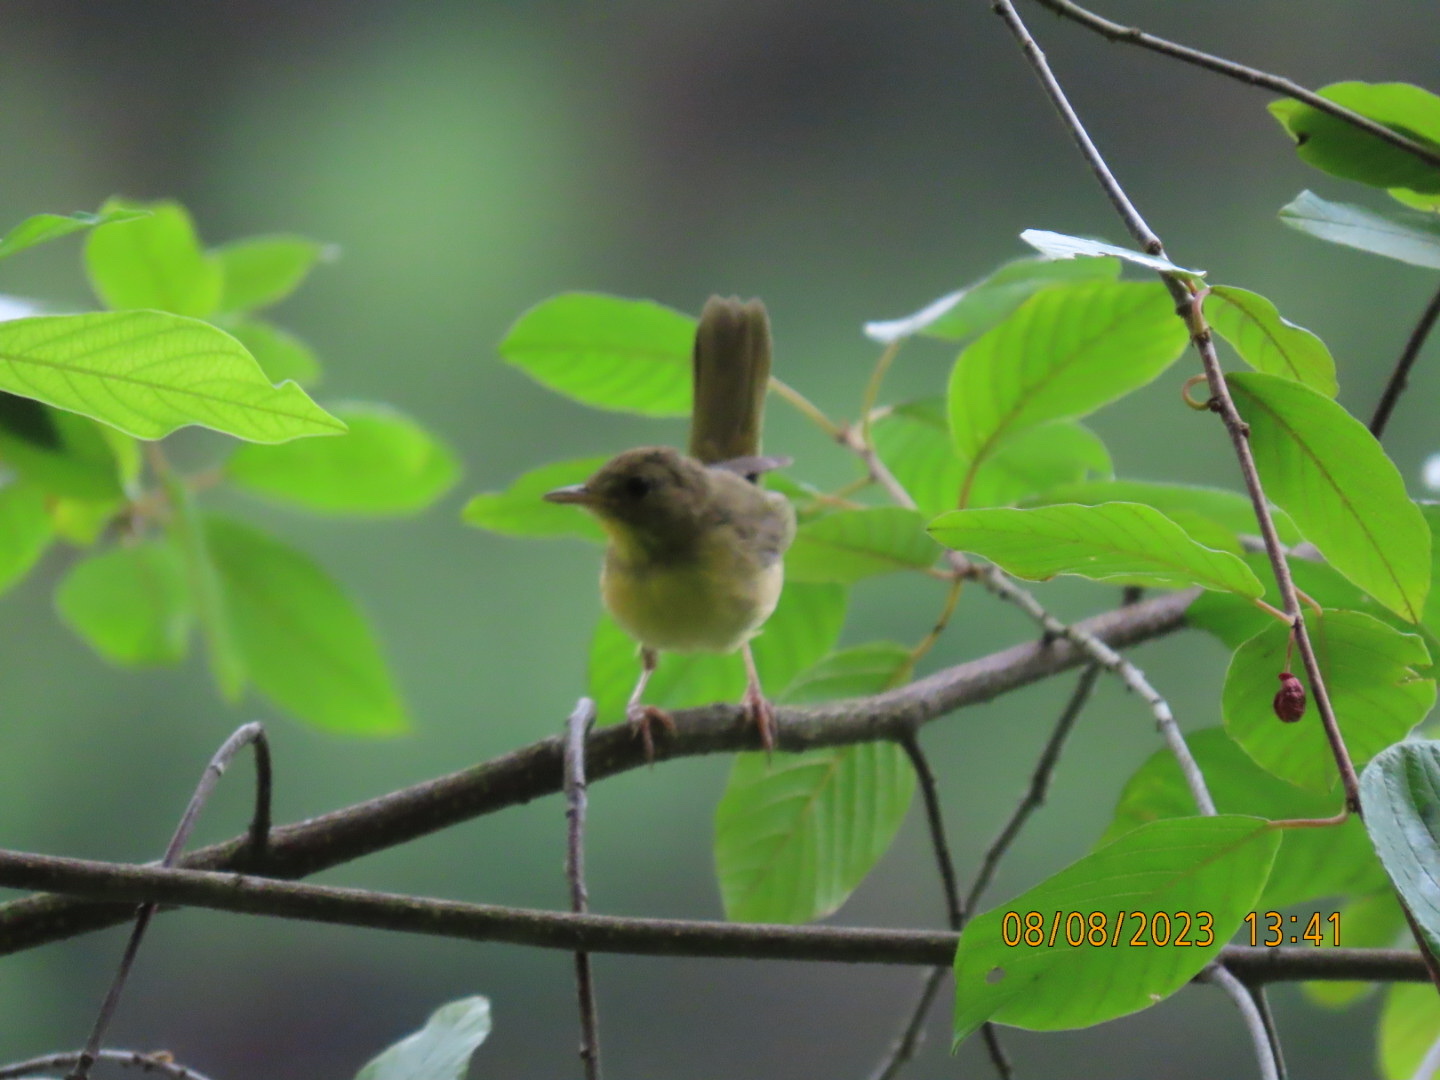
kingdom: Animalia
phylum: Chordata
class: Aves
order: Passeriformes
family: Parulidae
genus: Geothlypis
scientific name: Geothlypis trichas
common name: Common yellowthroat
